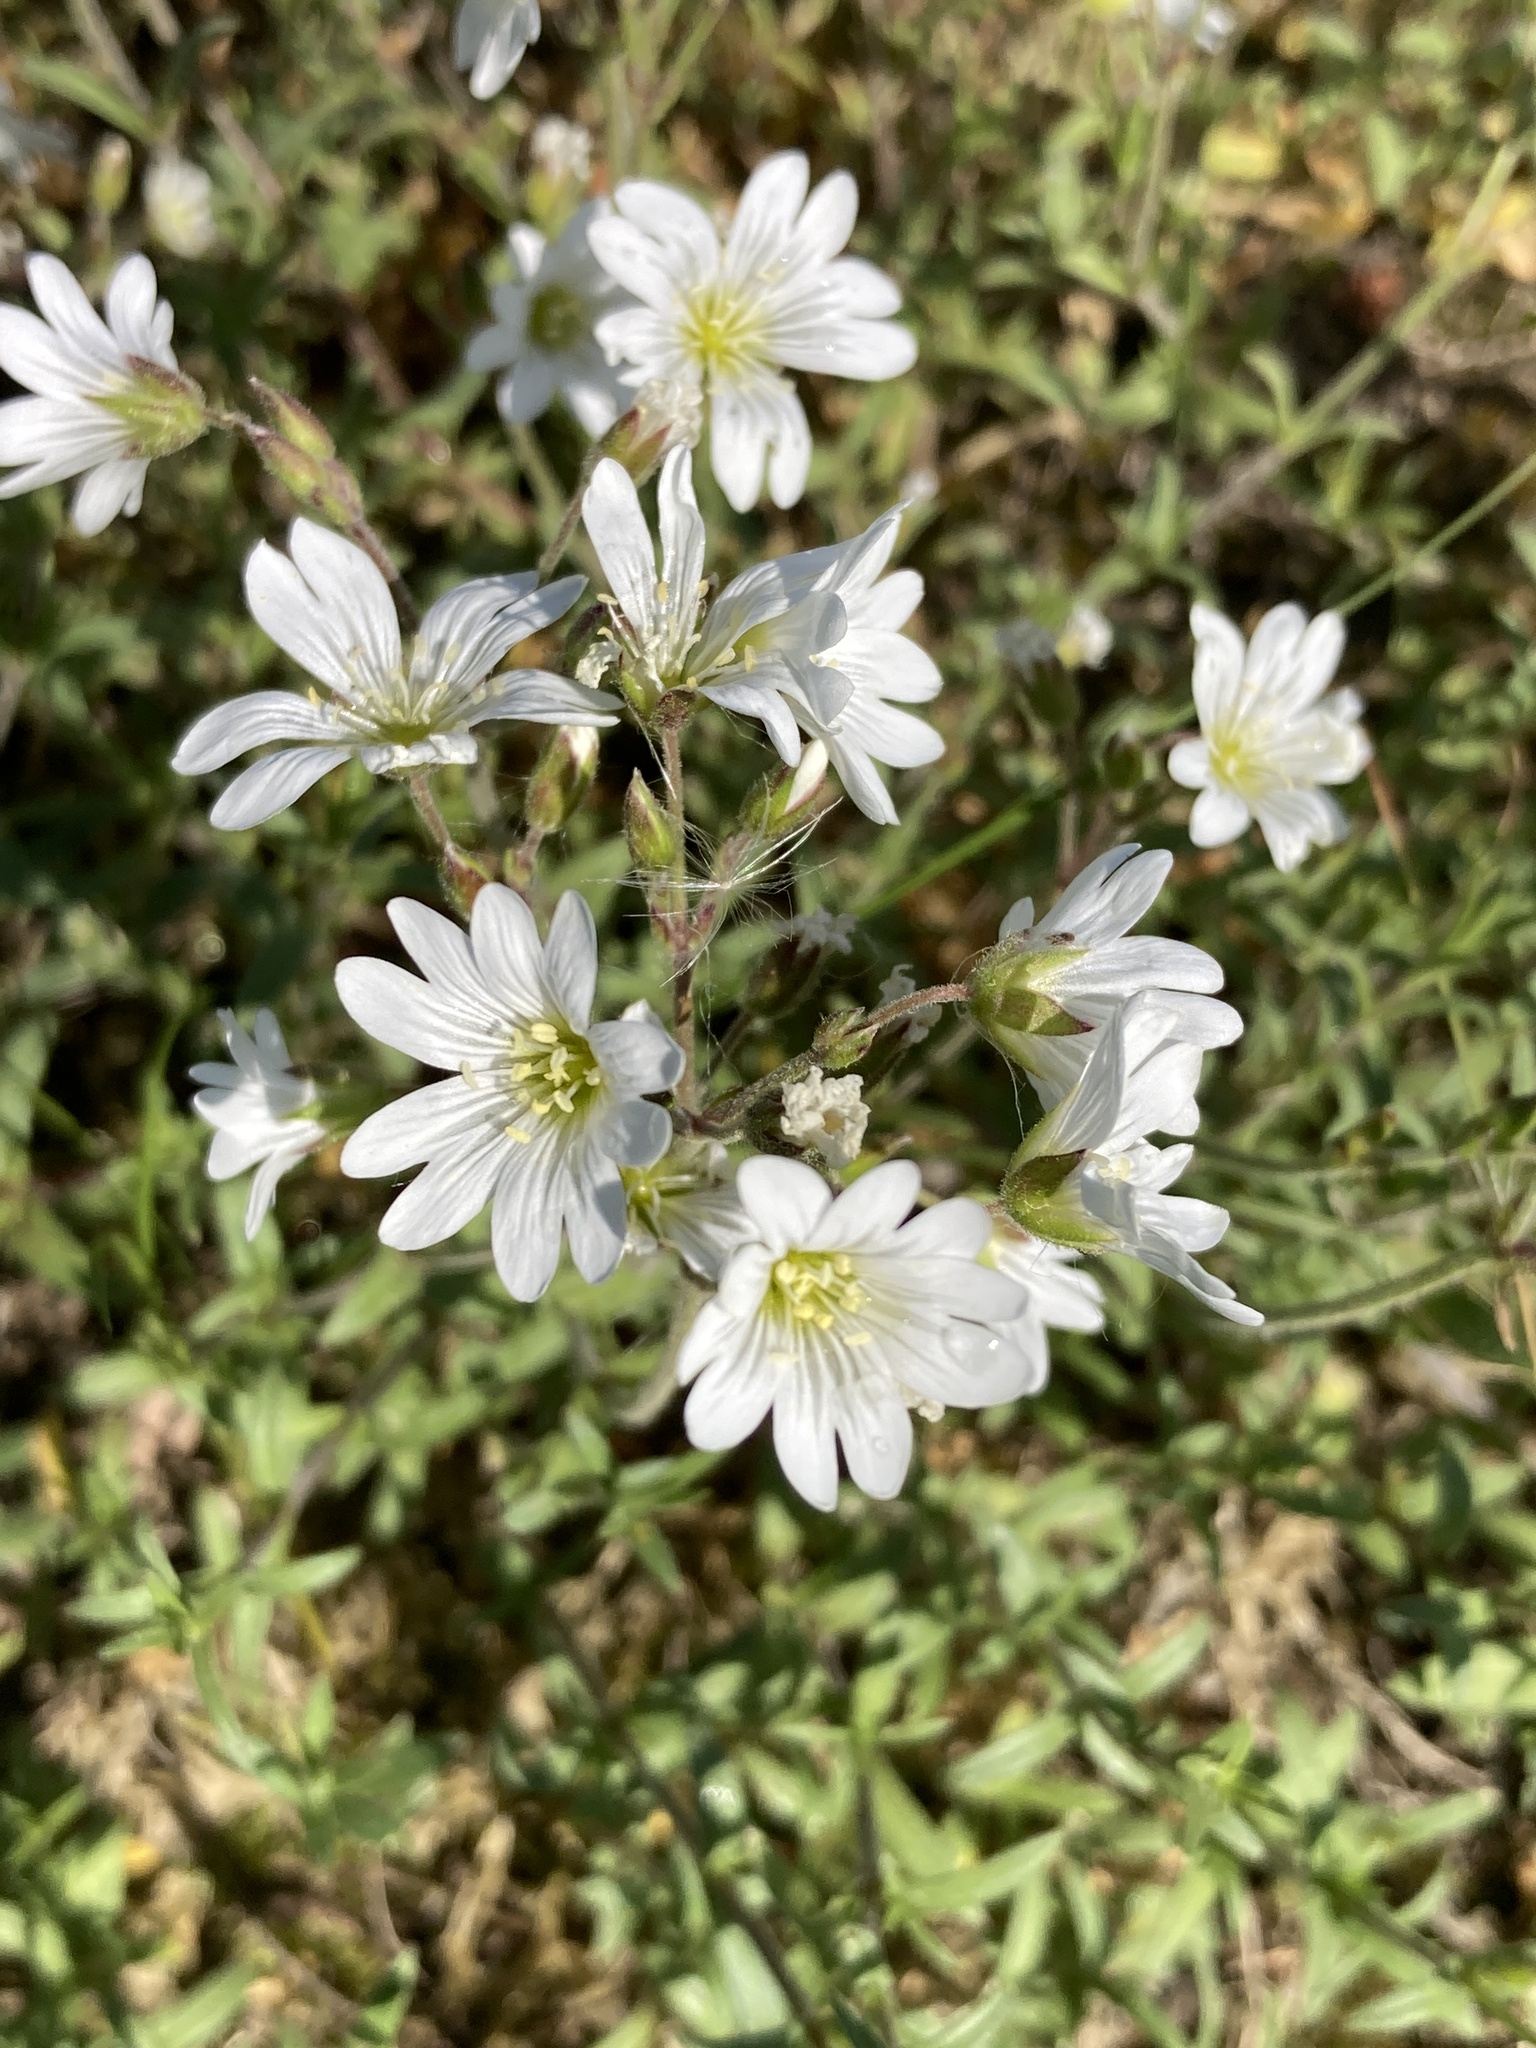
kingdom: Plantae
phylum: Tracheophyta
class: Magnoliopsida
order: Caryophyllales
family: Caryophyllaceae
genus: Cerastium
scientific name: Cerastium arvense
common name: Field mouse-ear
